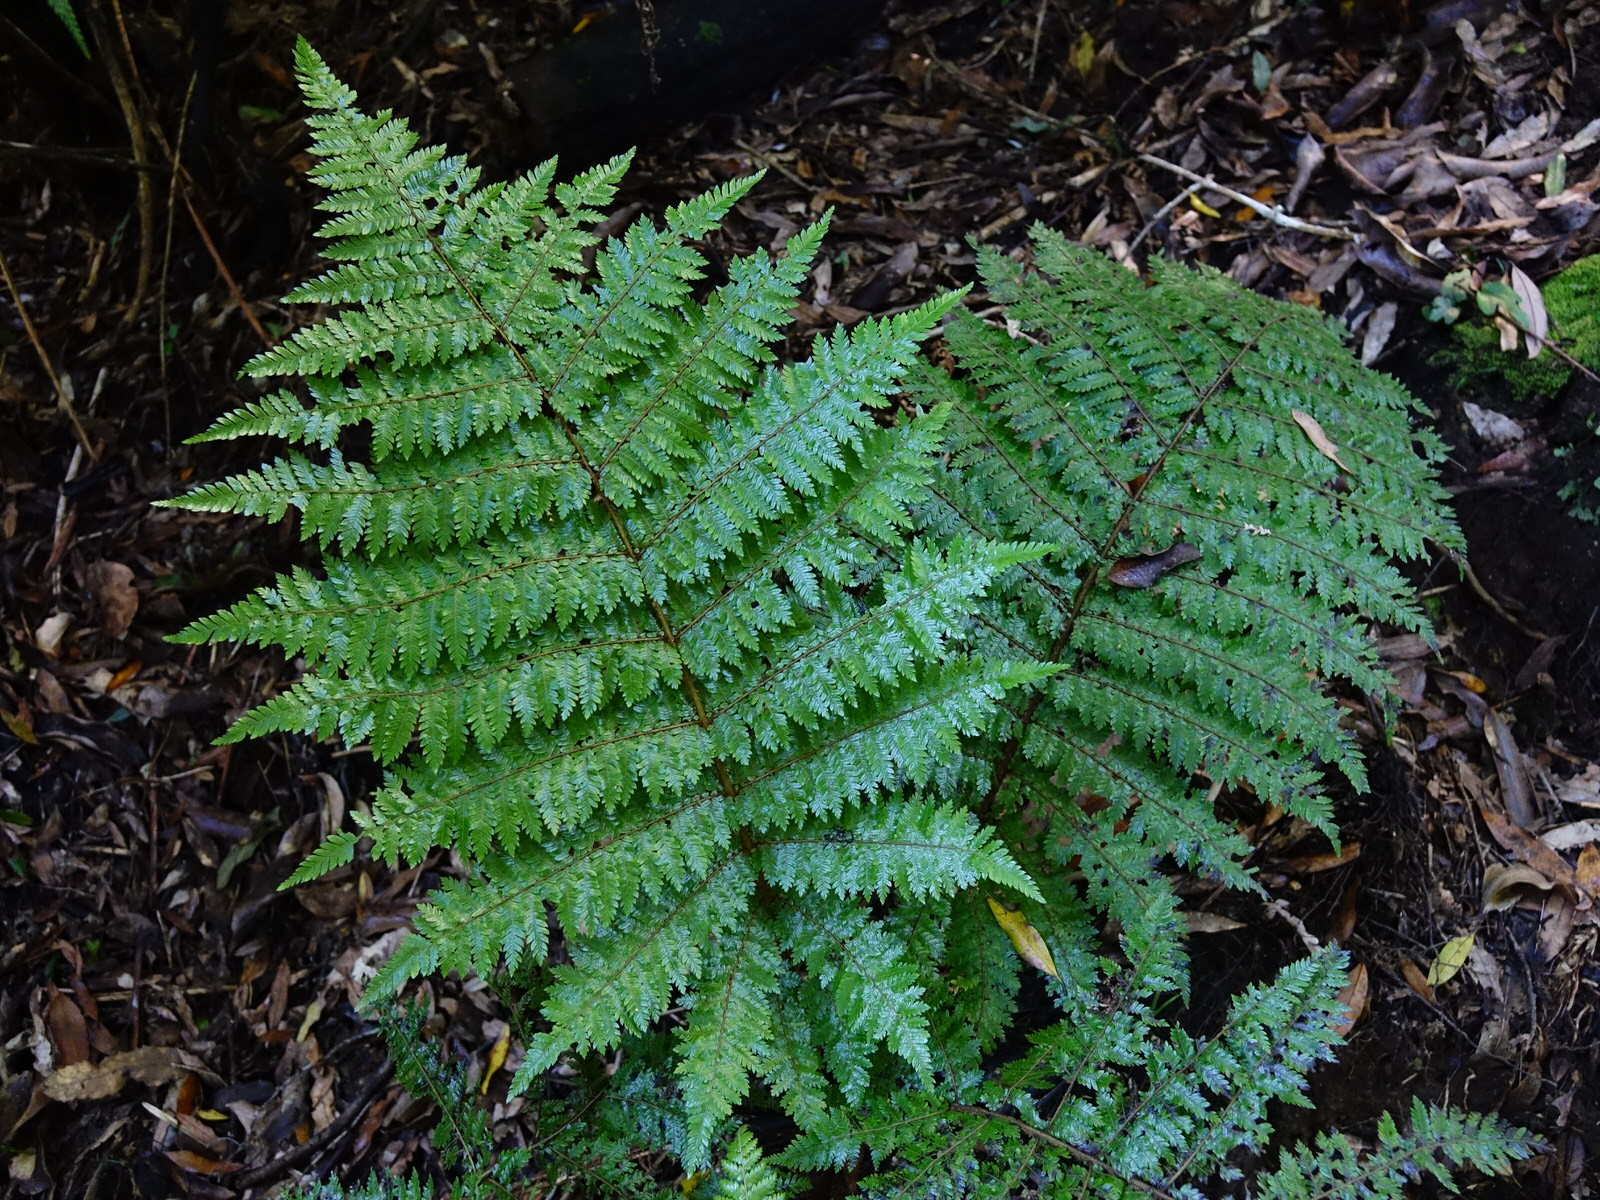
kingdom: Plantae
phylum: Tracheophyta
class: Polypodiopsida
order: Cyatheales
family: Cyatheaceae
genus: Alsophila
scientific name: Alsophila smithii
